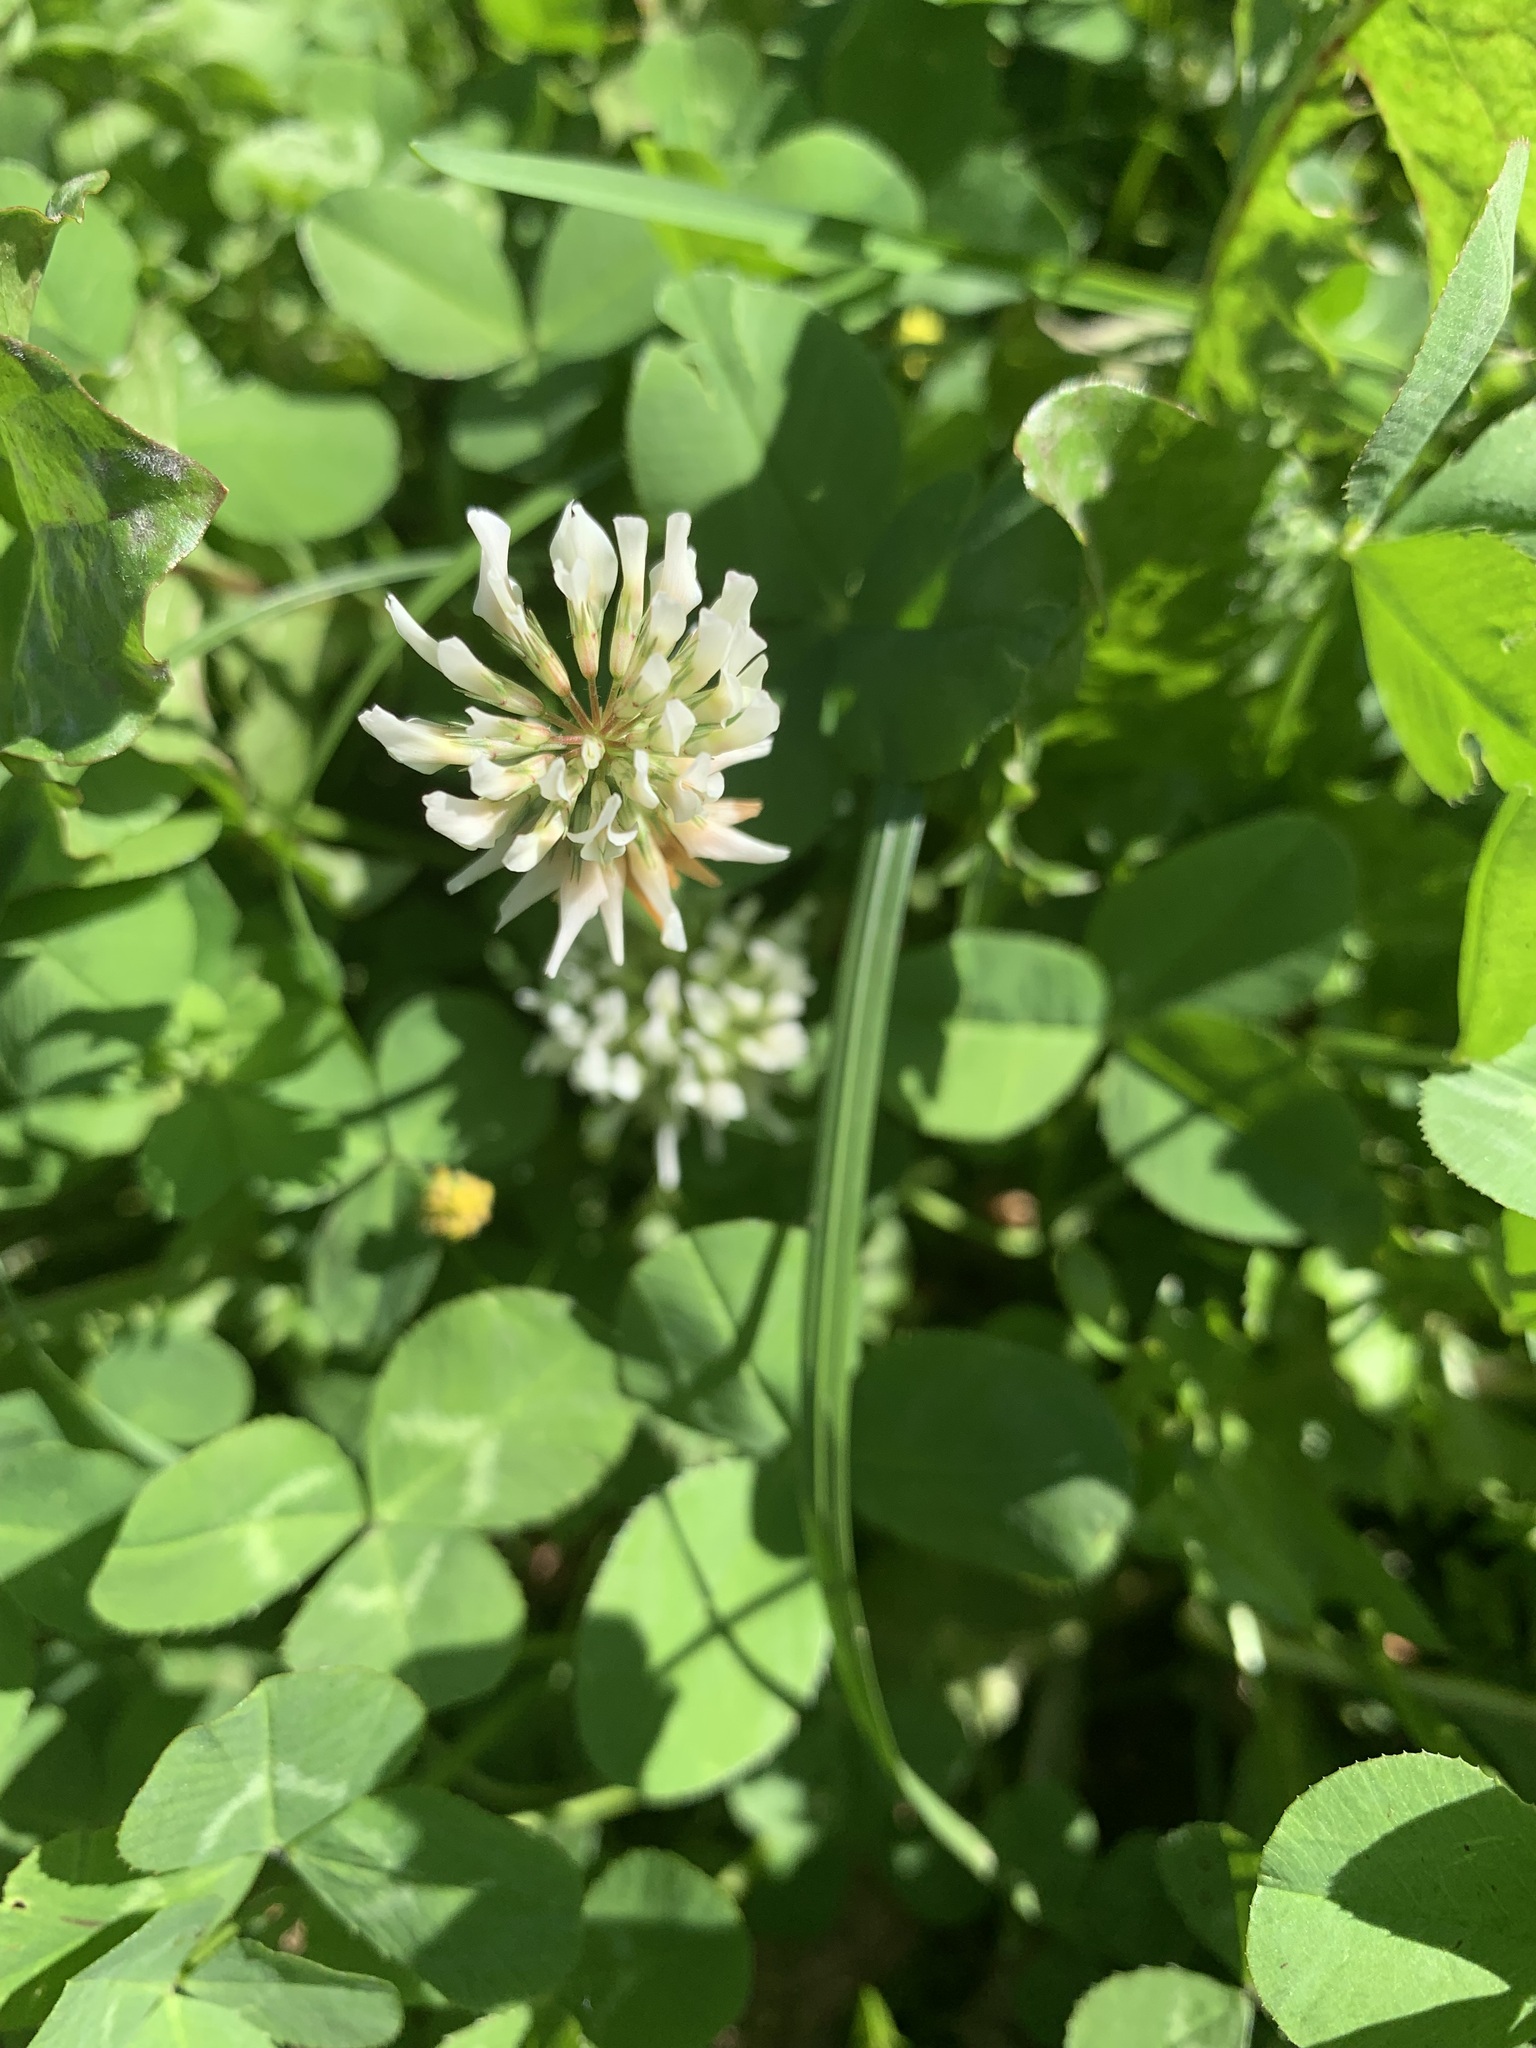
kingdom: Plantae
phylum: Tracheophyta
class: Magnoliopsida
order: Fabales
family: Fabaceae
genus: Trifolium
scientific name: Trifolium repens
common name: White clover
